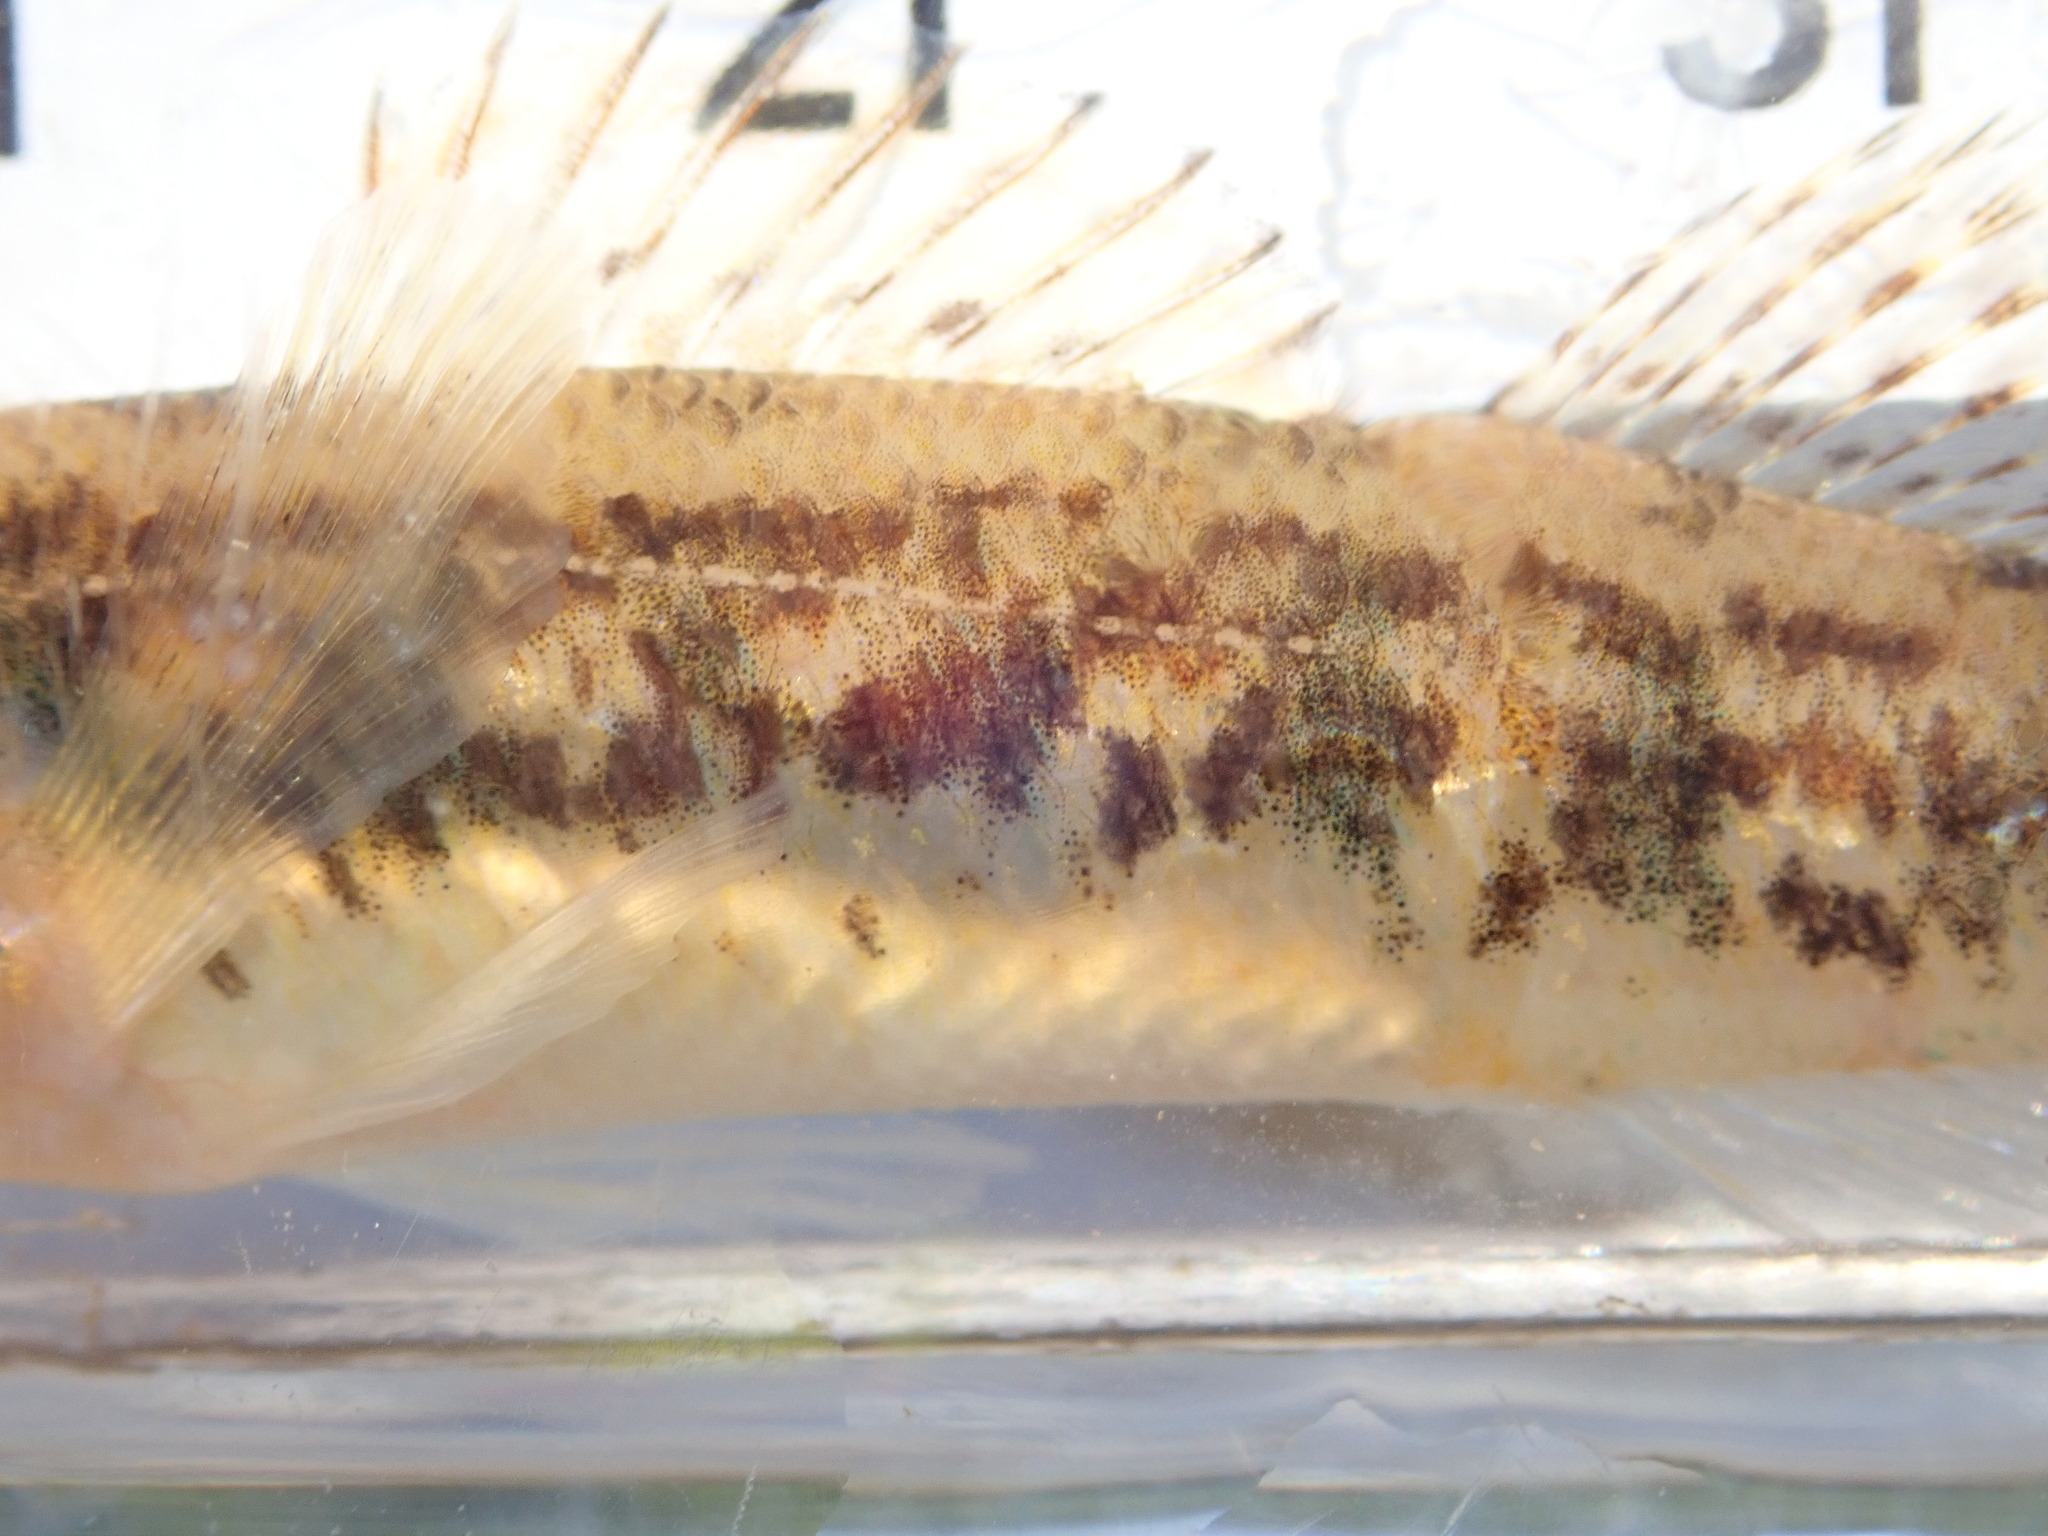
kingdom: Animalia
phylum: Chordata
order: Perciformes
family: Percidae
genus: Etheostoma
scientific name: Etheostoma exile
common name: Iowa darter
